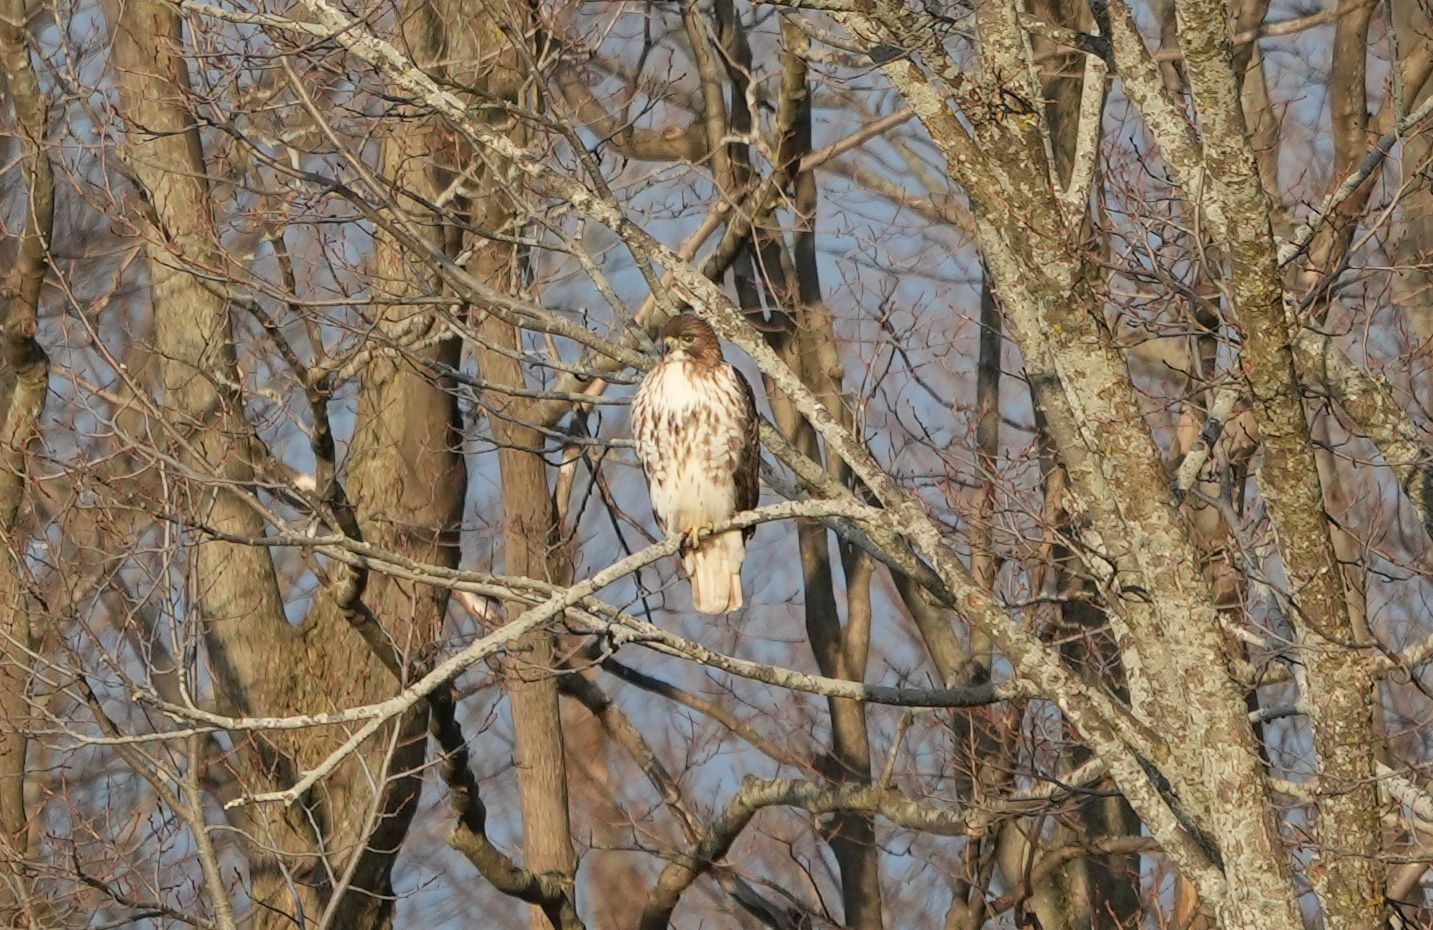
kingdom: Animalia
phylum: Chordata
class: Aves
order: Accipitriformes
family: Accipitridae
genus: Buteo
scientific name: Buteo jamaicensis
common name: Red-tailed hawk
